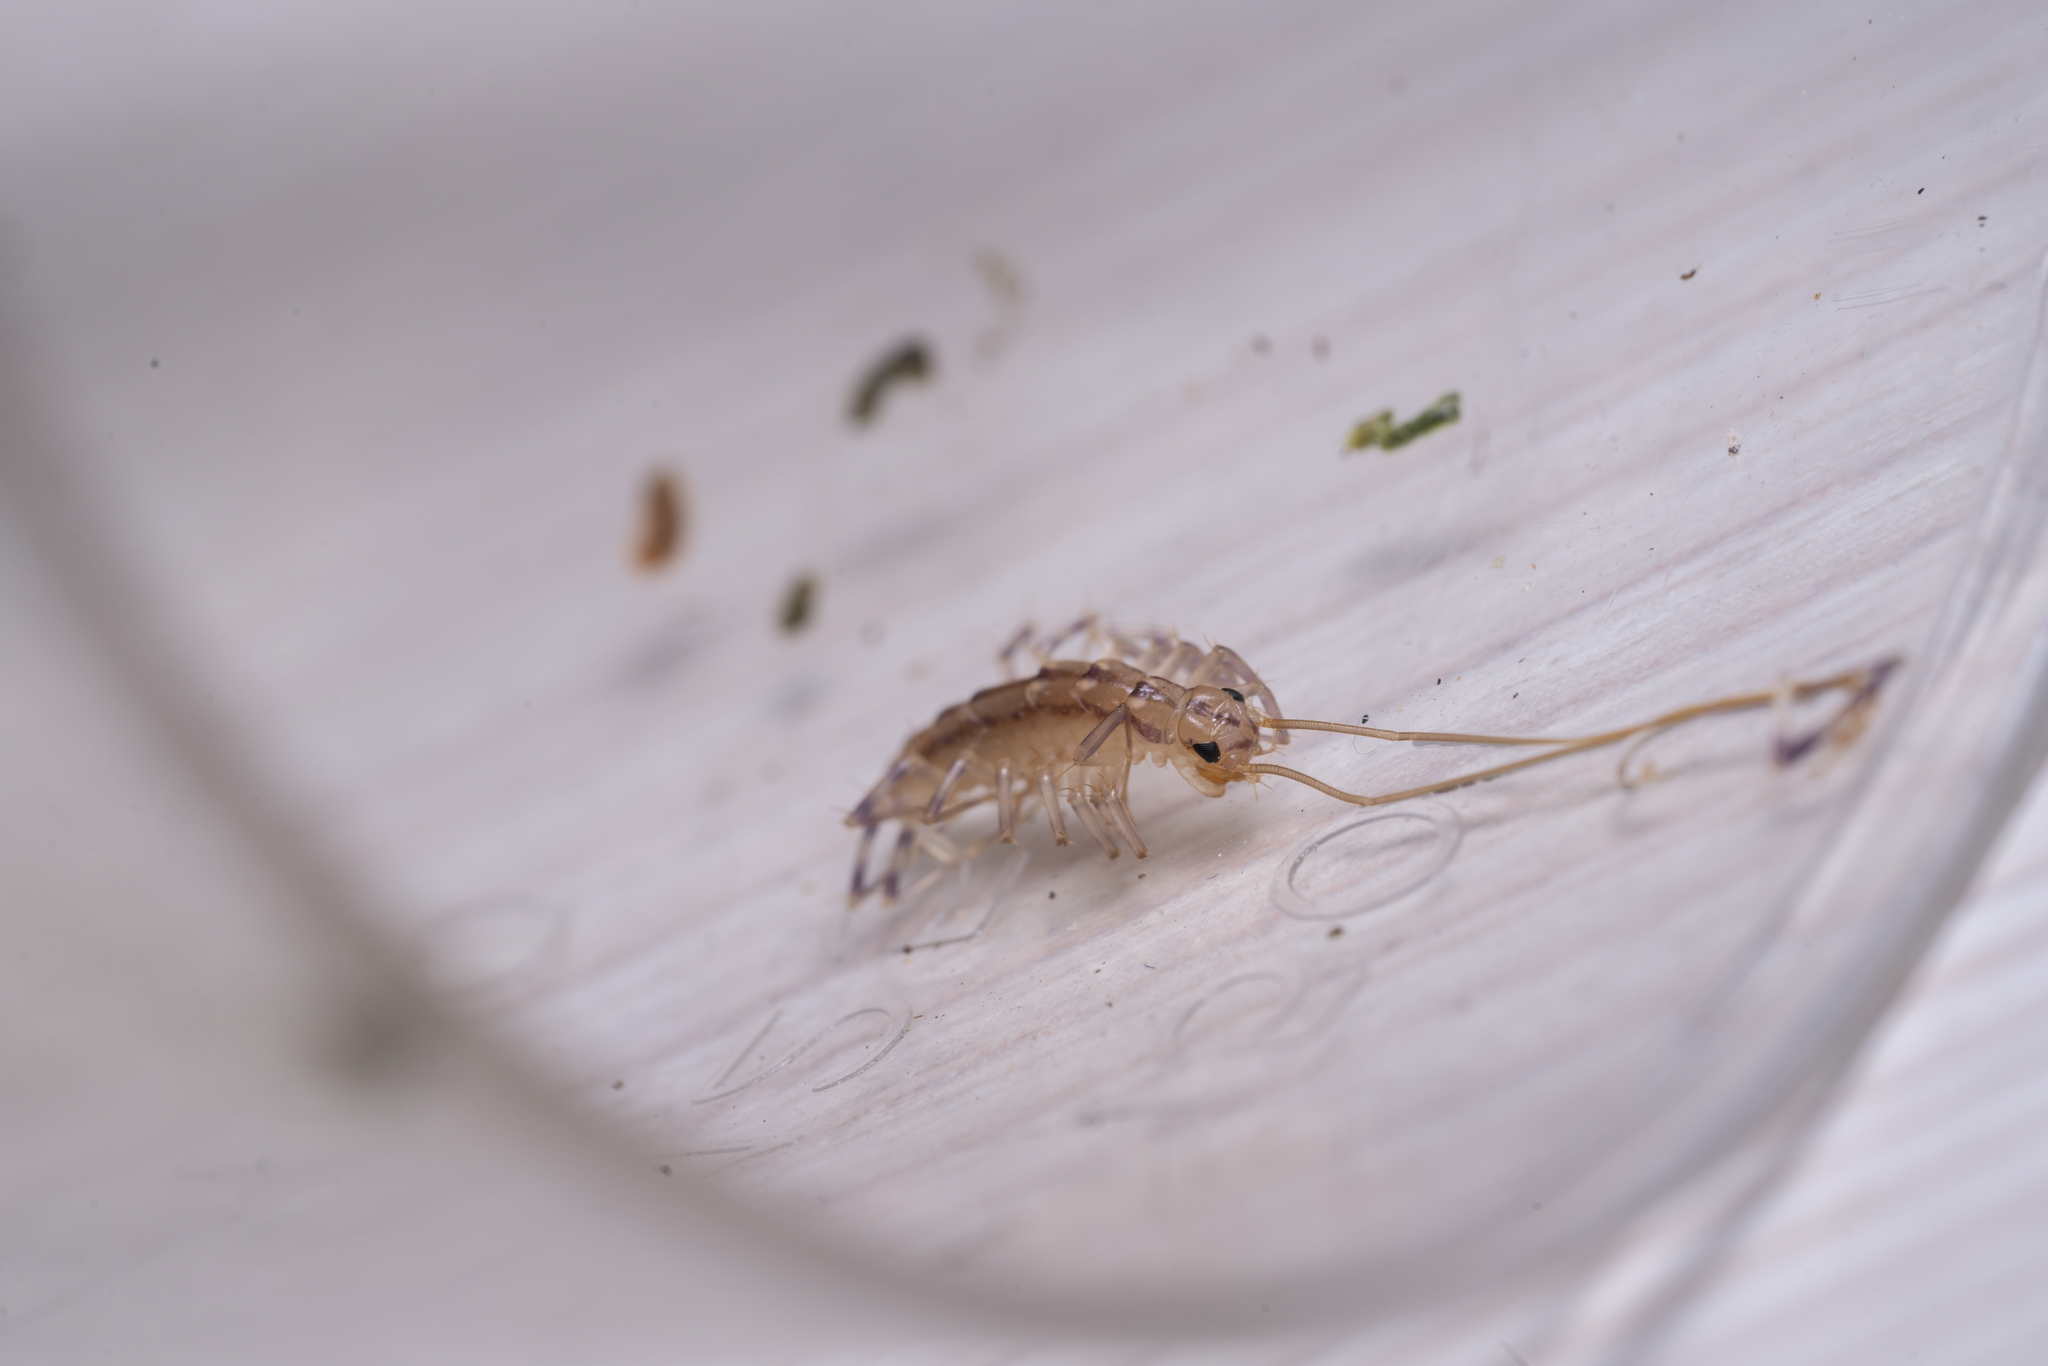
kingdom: Animalia
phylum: Arthropoda
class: Chilopoda
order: Scutigeromorpha
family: Scutigeridae
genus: Scutigera
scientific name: Scutigera coleoptrata
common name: House centipede
